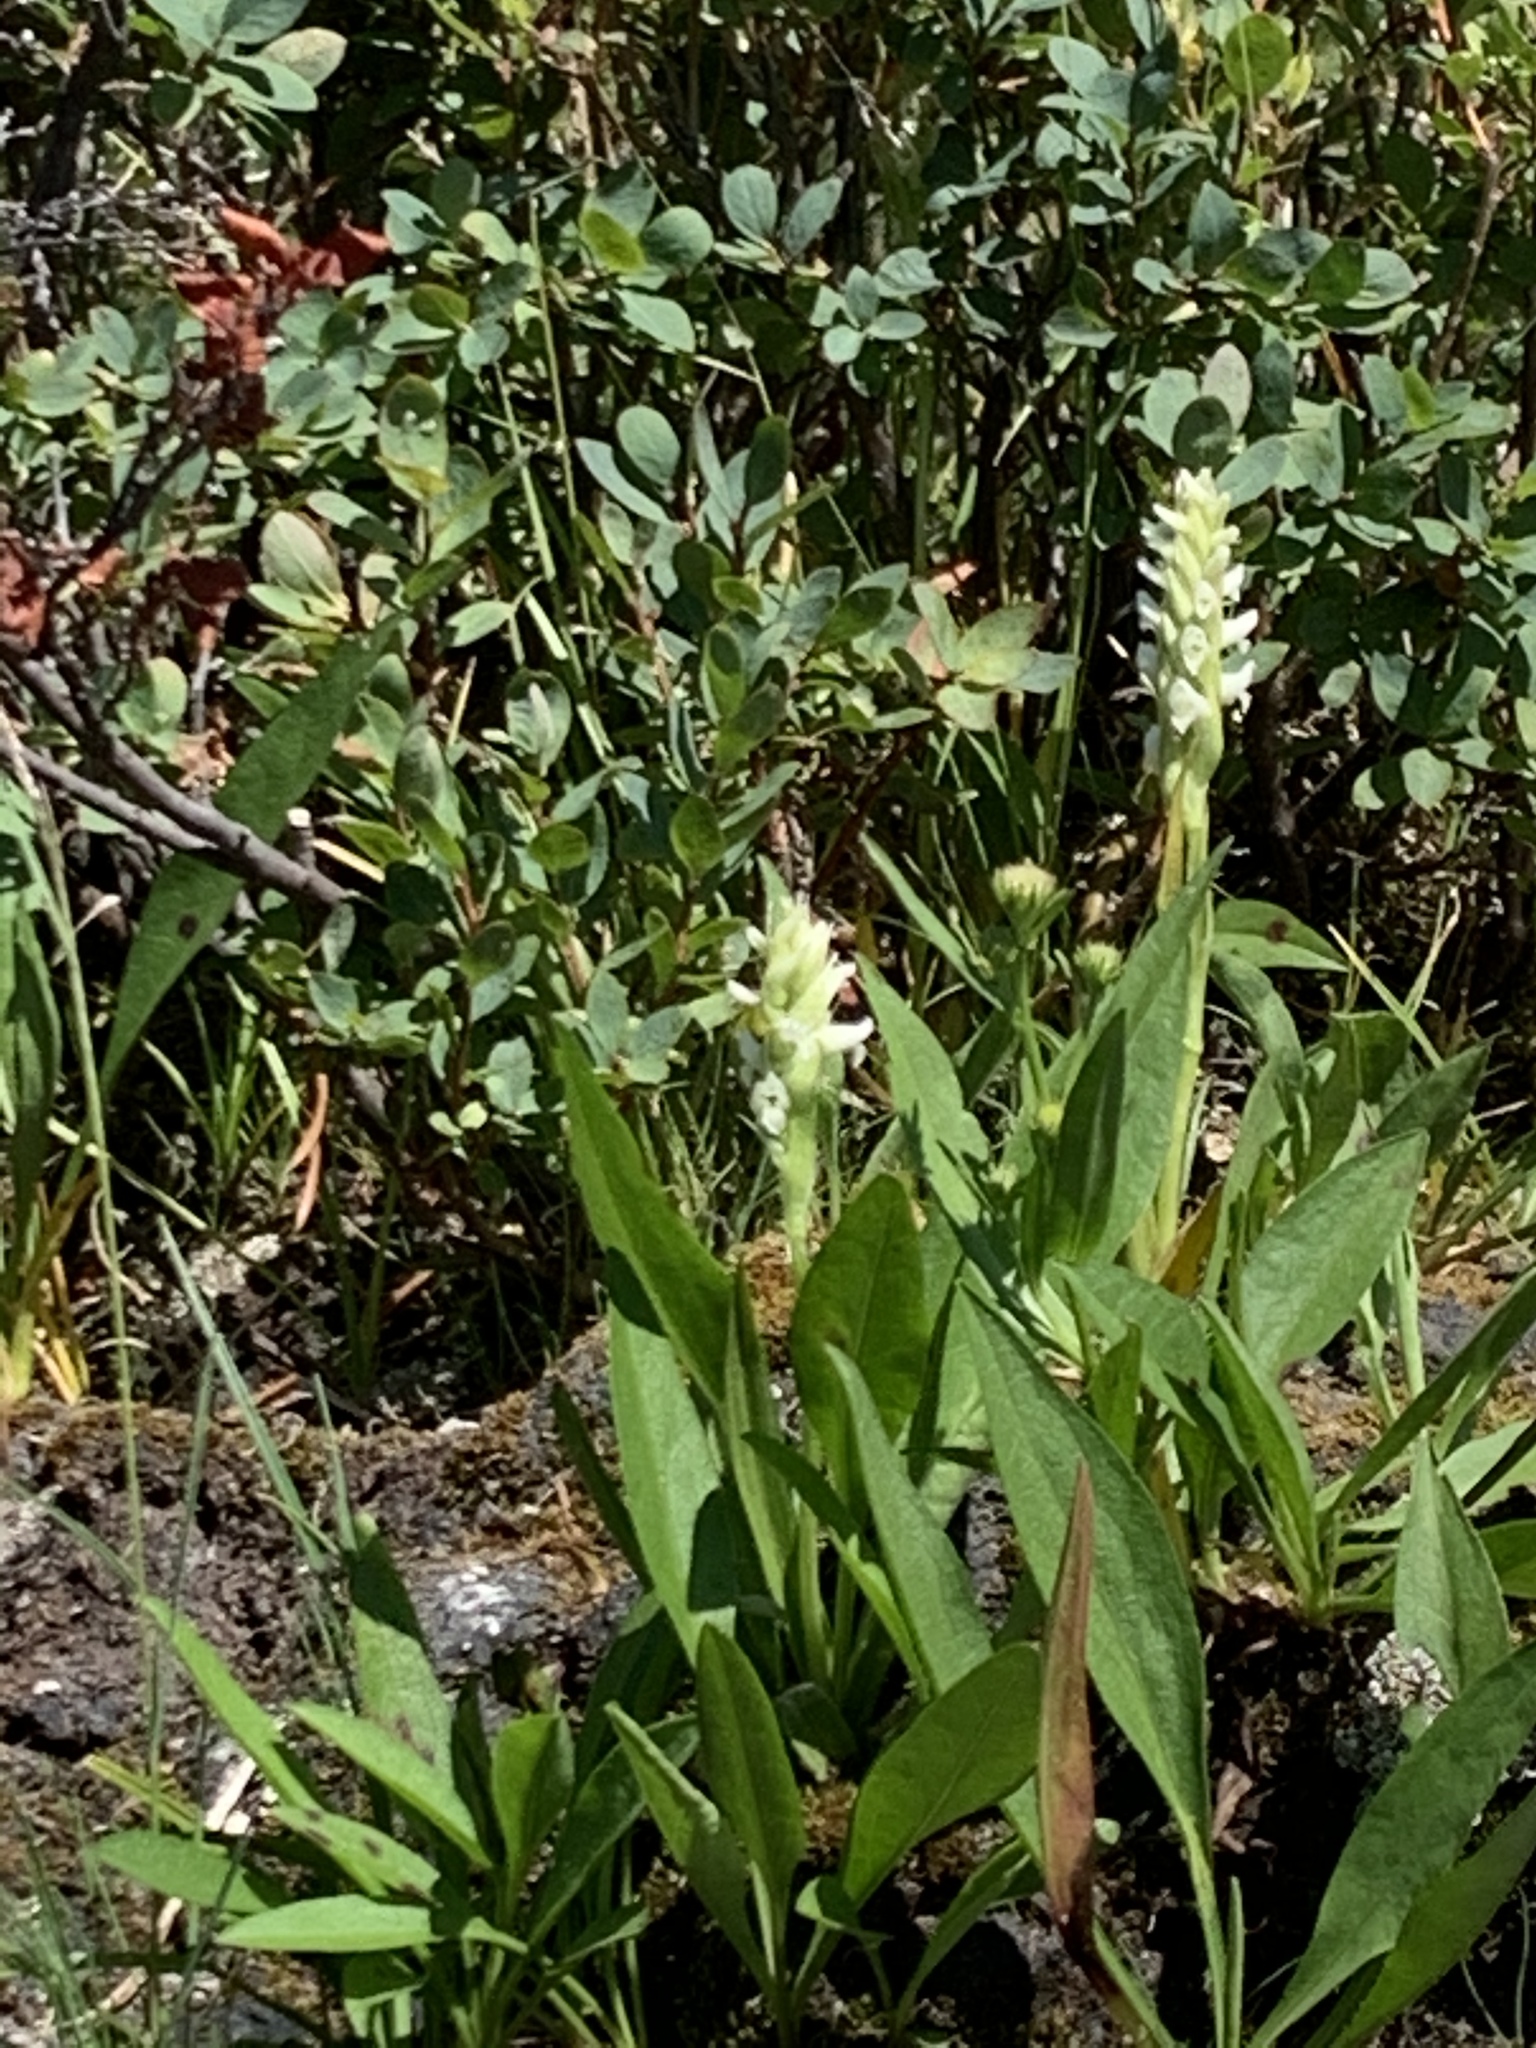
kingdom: Plantae
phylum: Tracheophyta
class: Liliopsida
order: Asparagales
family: Orchidaceae
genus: Spiranthes
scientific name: Spiranthes romanzoffiana
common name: Irish lady's-tresses
